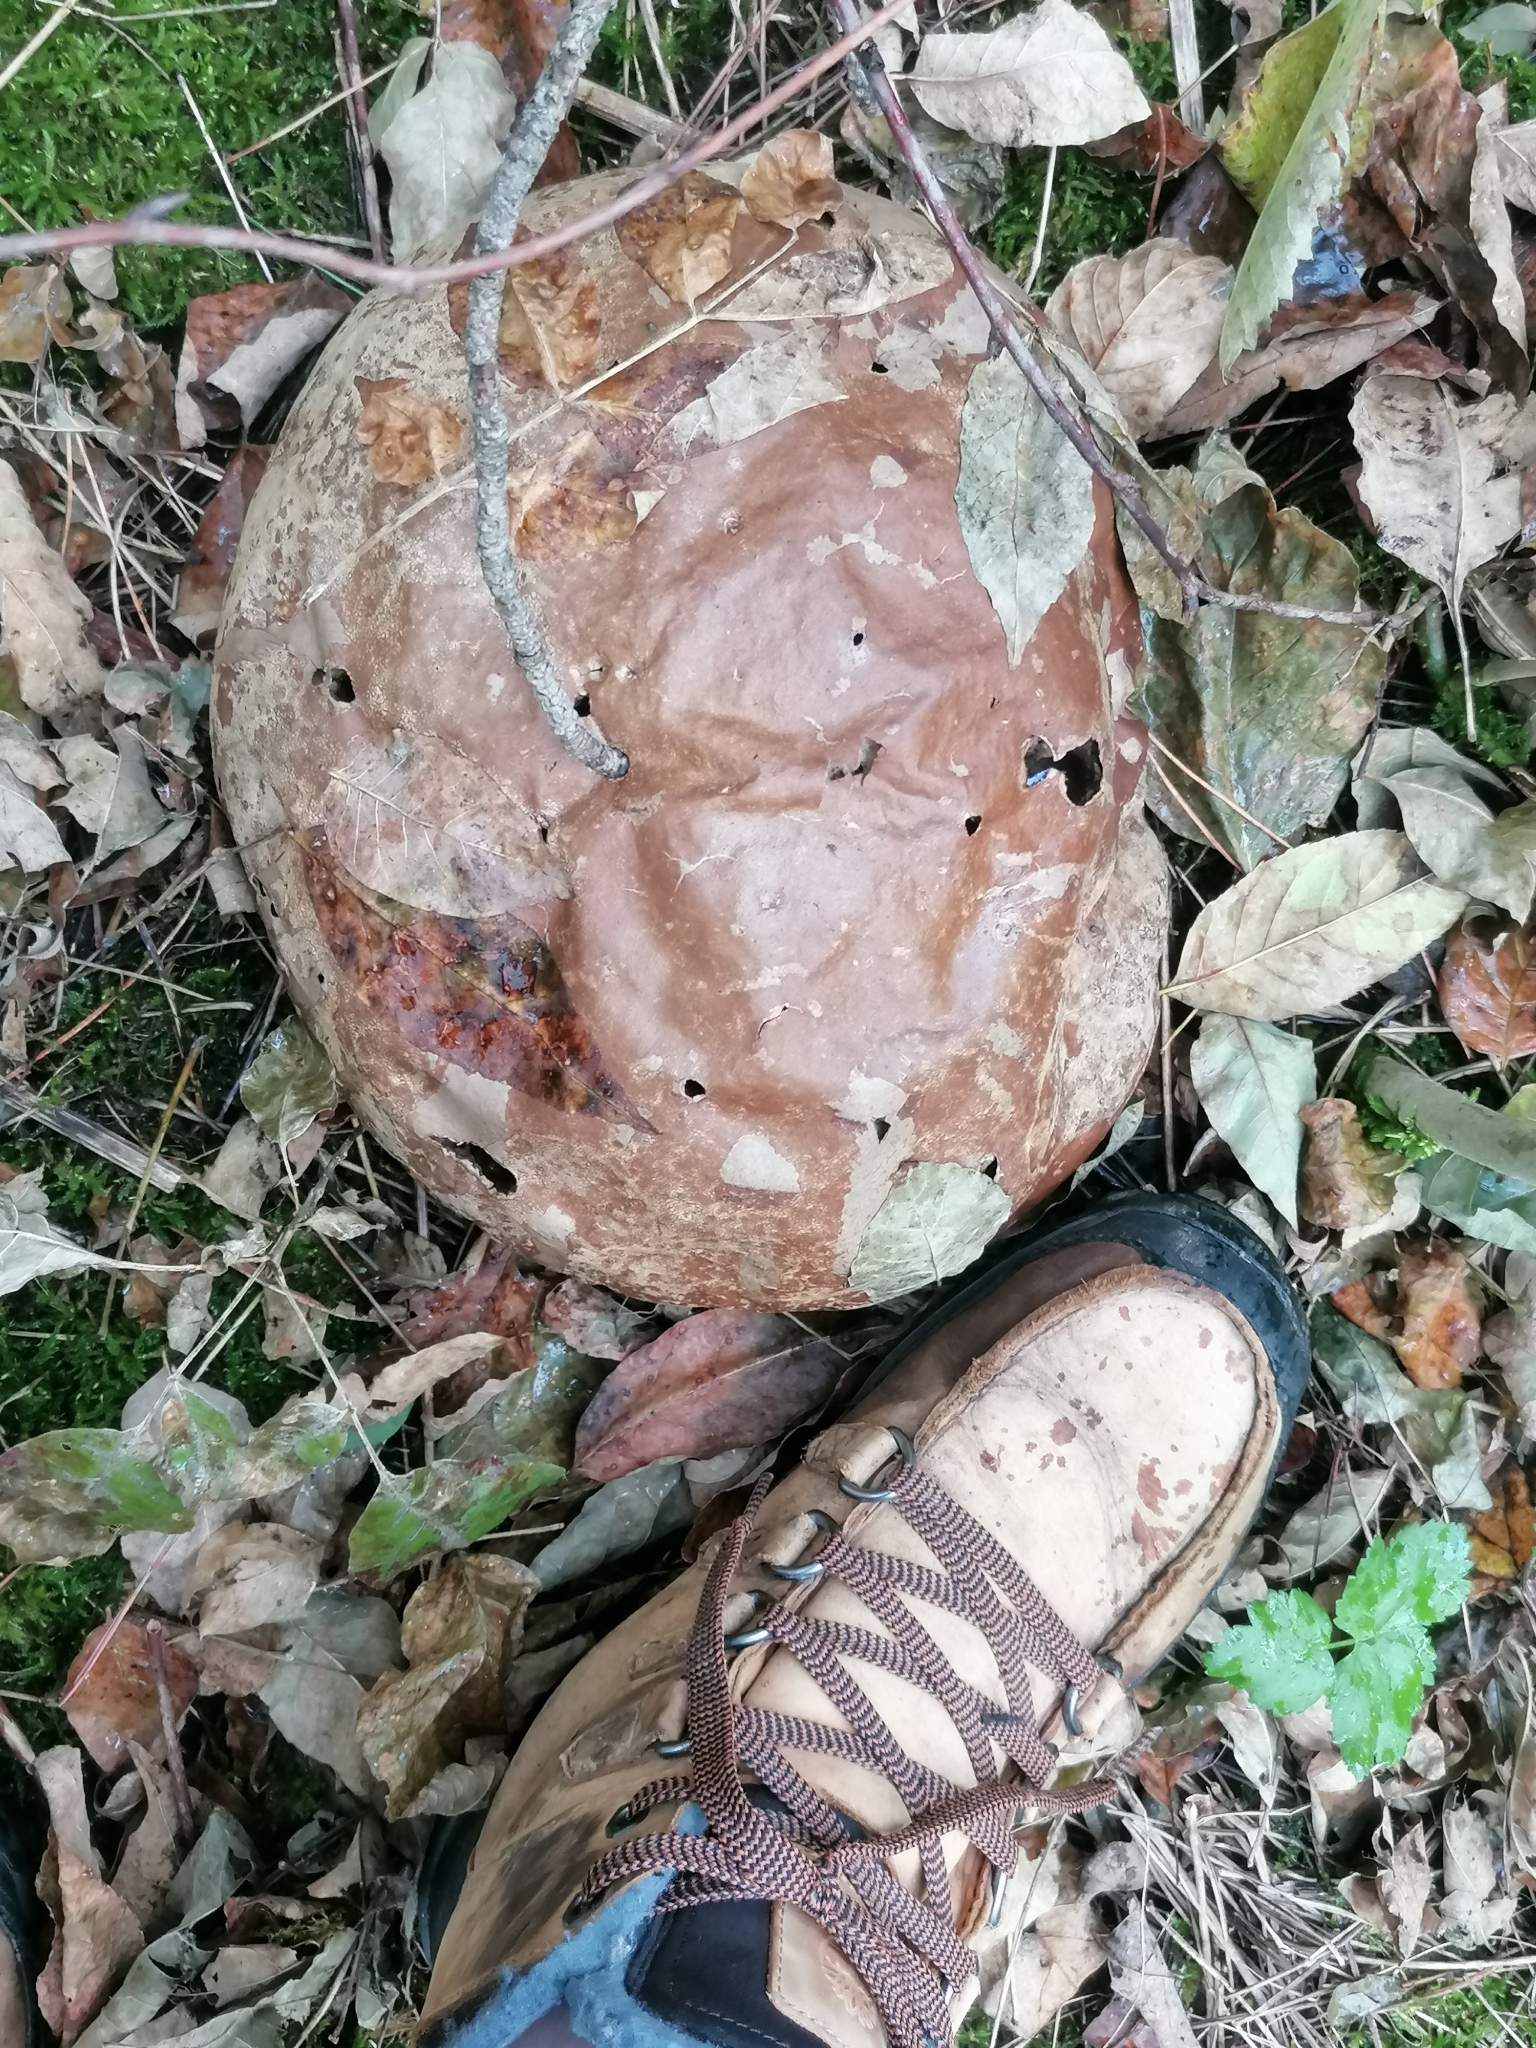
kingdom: Fungi
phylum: Basidiomycota
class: Agaricomycetes
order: Agaricales
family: Lycoperdaceae
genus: Calvatia
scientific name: Calvatia gigantea
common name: Giant puffball
